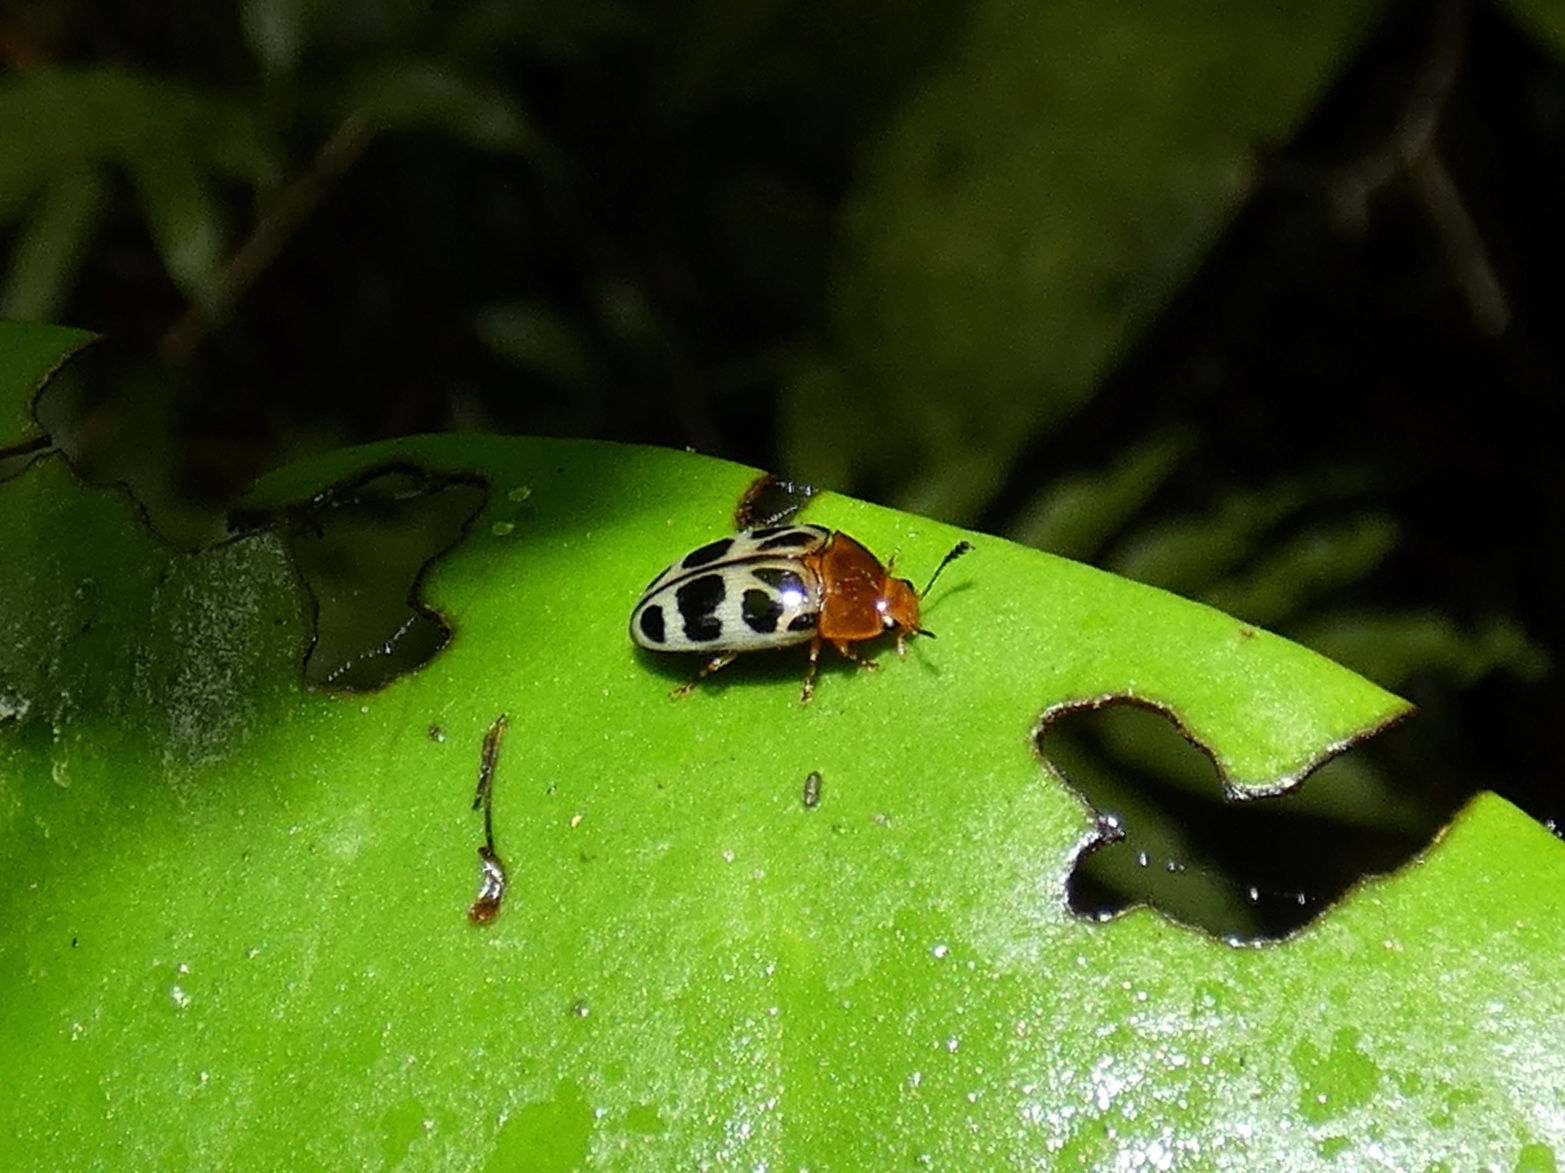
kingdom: Animalia
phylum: Arthropoda
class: Insecta
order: Coleoptera
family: Erotylidae
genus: Mycotretus
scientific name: Mycotretus pecari
